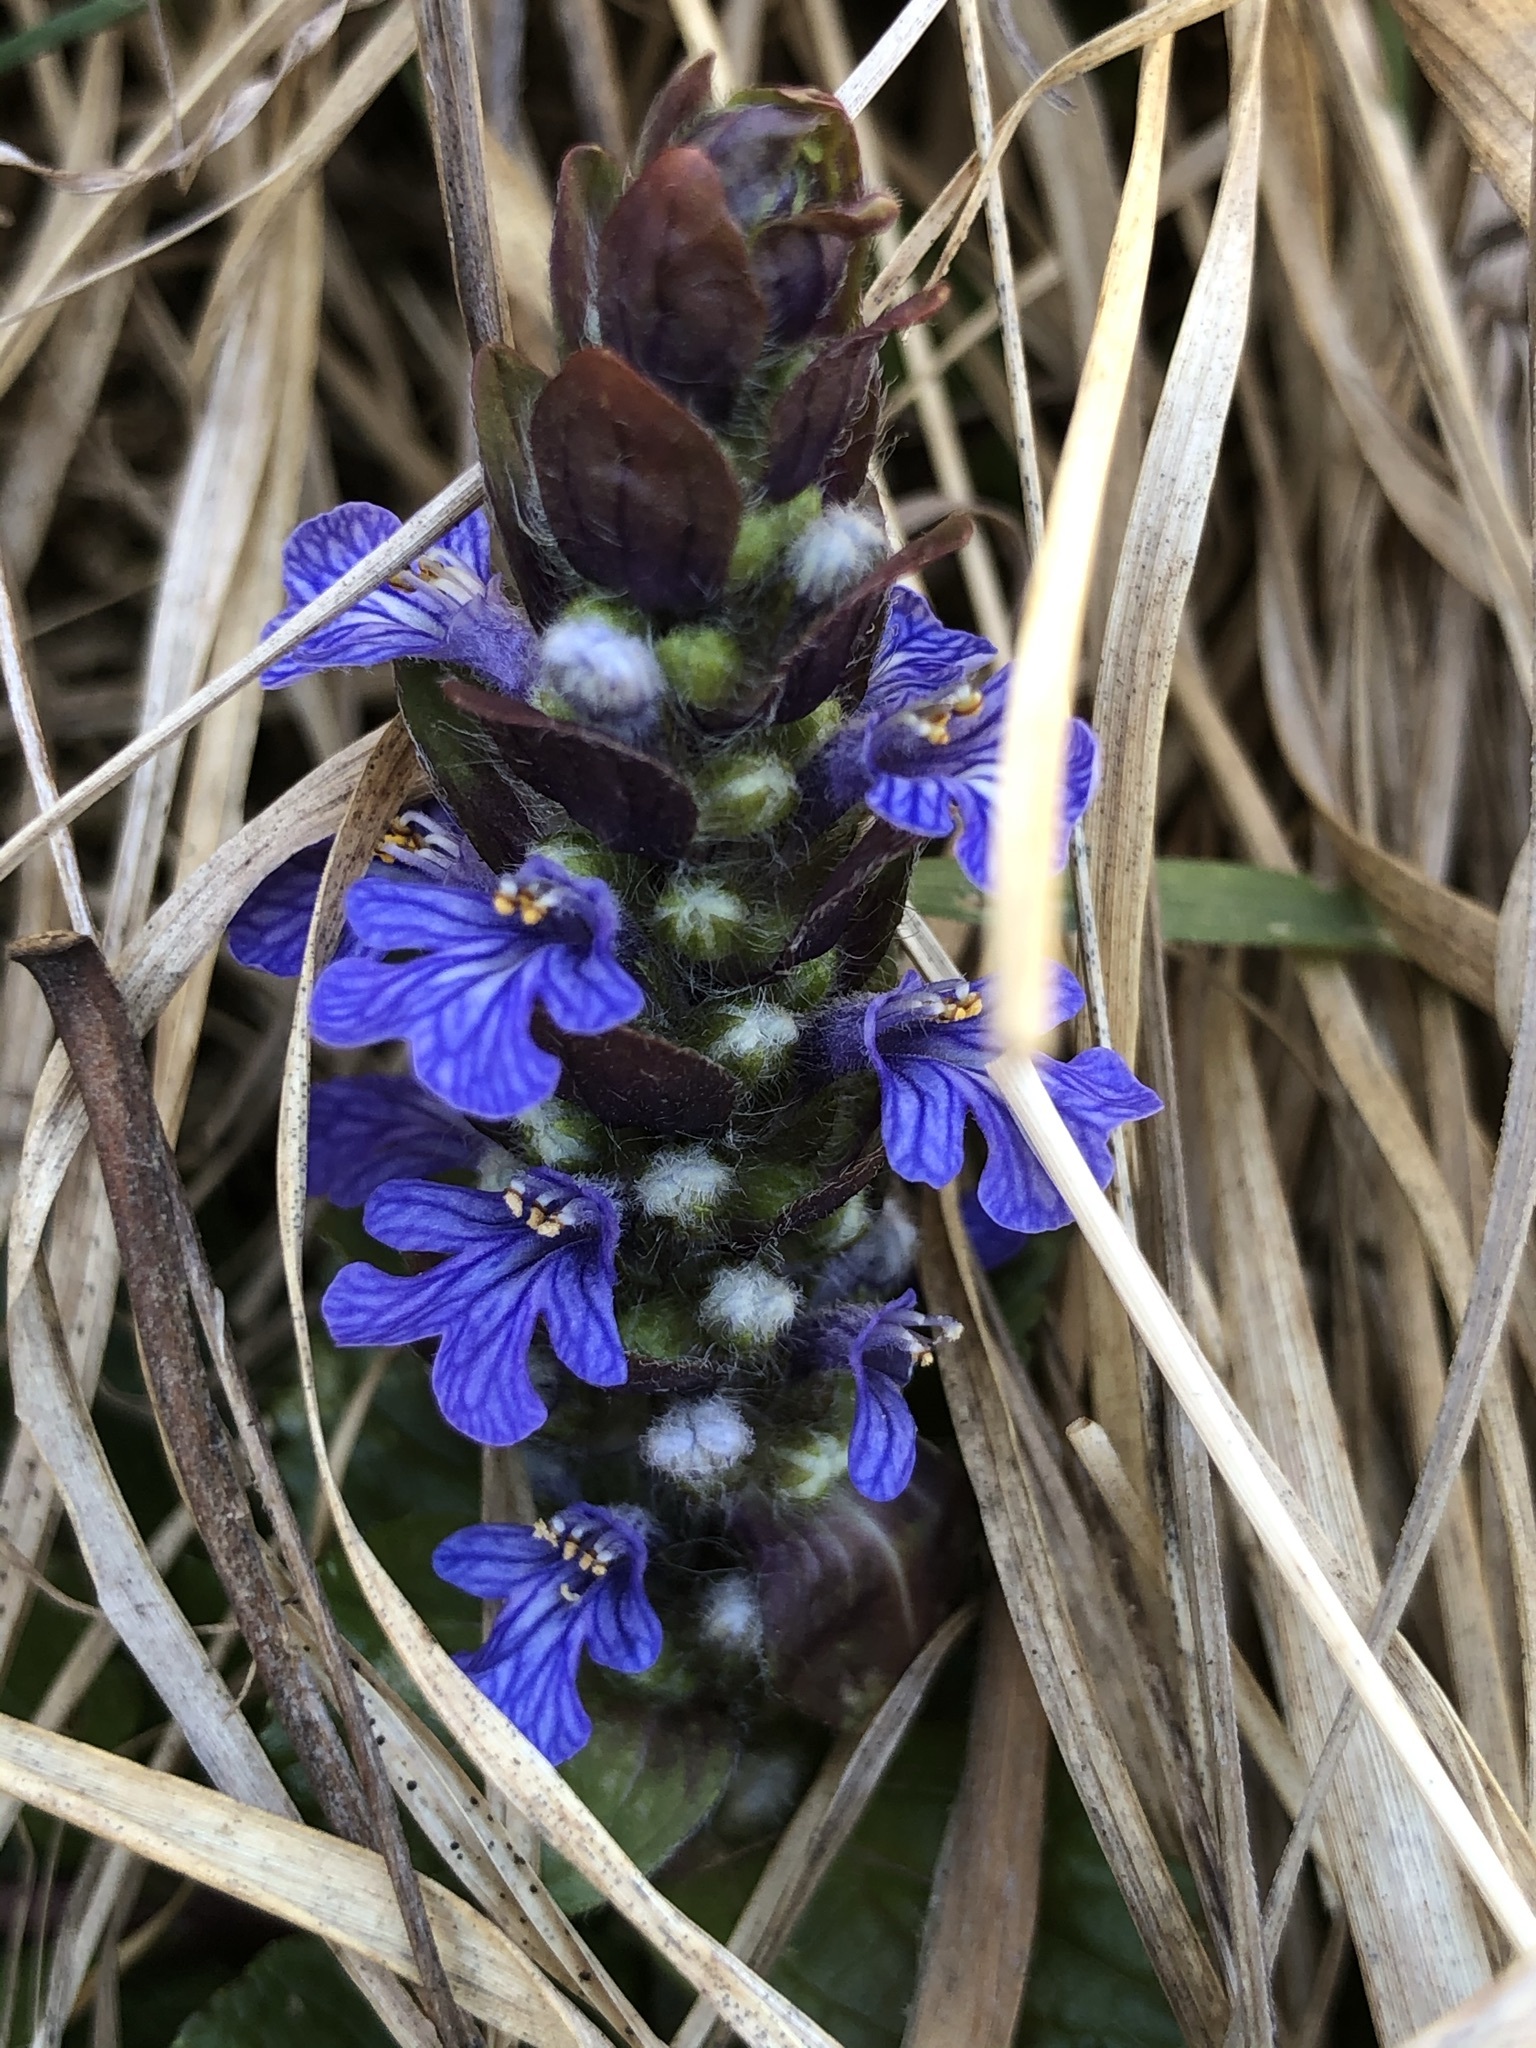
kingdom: Plantae
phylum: Tracheophyta
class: Magnoliopsida
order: Lamiales
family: Lamiaceae
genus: Ajuga
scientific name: Ajuga reptans
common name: Bugle
